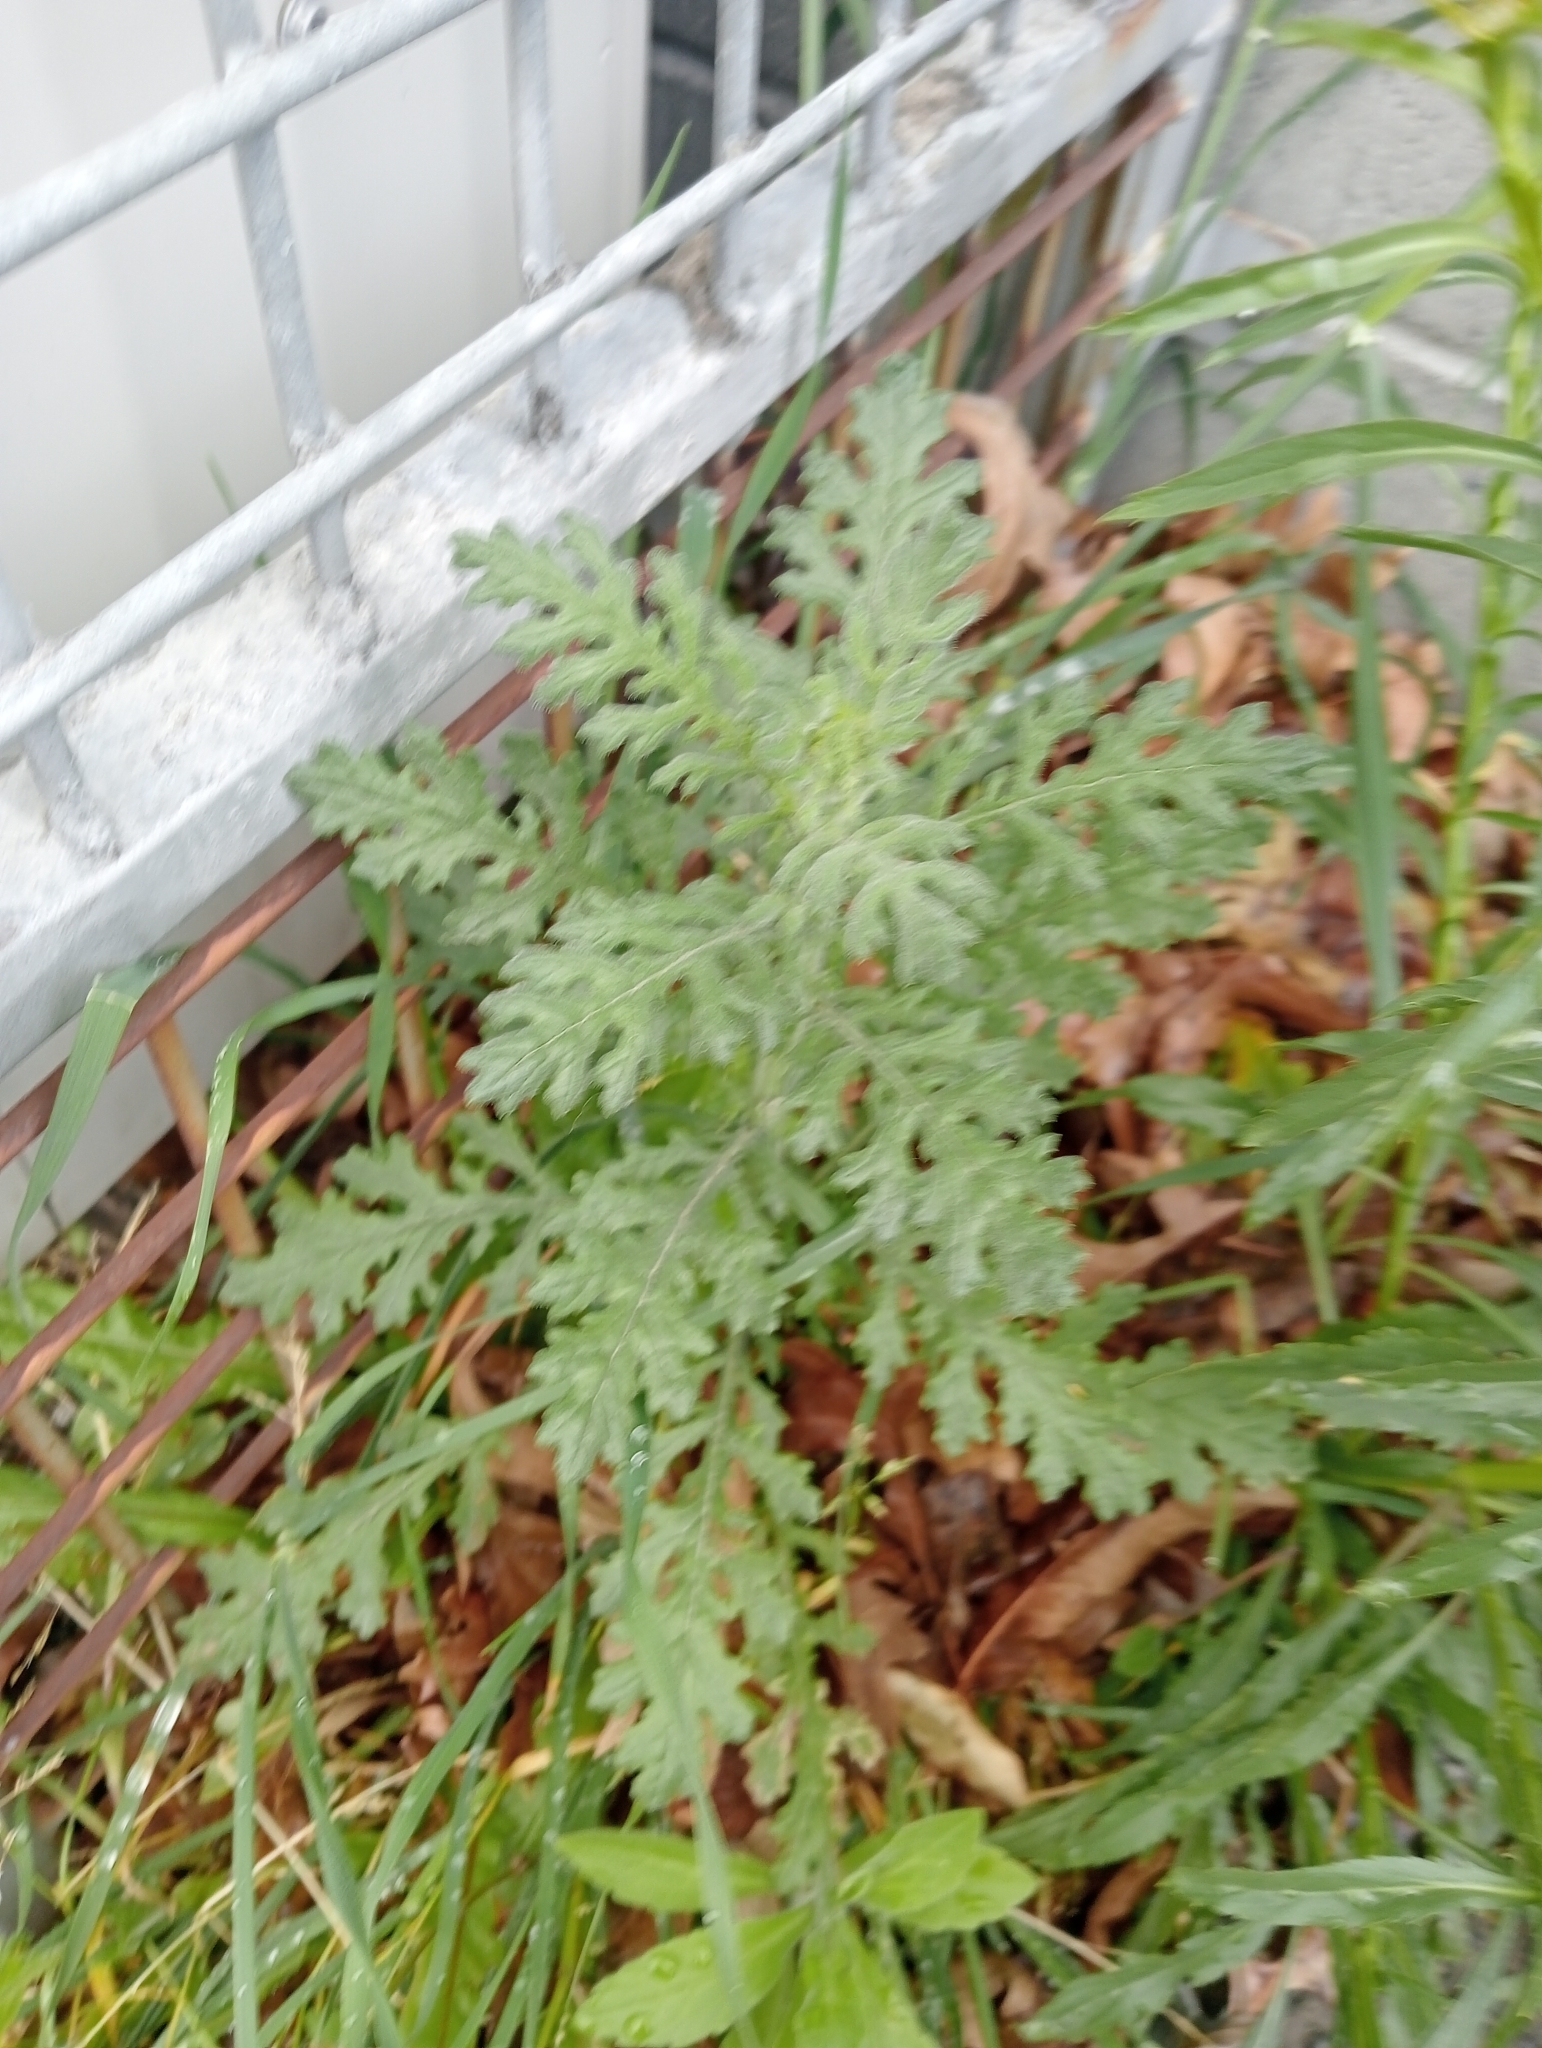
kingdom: Plantae
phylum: Tracheophyta
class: Magnoliopsida
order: Asterales
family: Asteraceae
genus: Senecio
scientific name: Senecio sylvaticus
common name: Woodland ragwort
